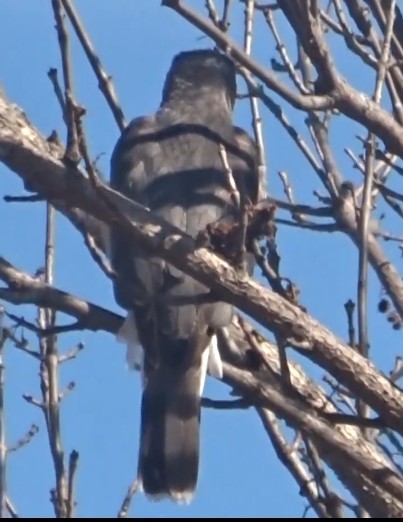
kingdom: Animalia
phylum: Chordata
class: Aves
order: Accipitriformes
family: Accipitridae
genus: Accipiter
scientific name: Accipiter cooperii
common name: Cooper's hawk
